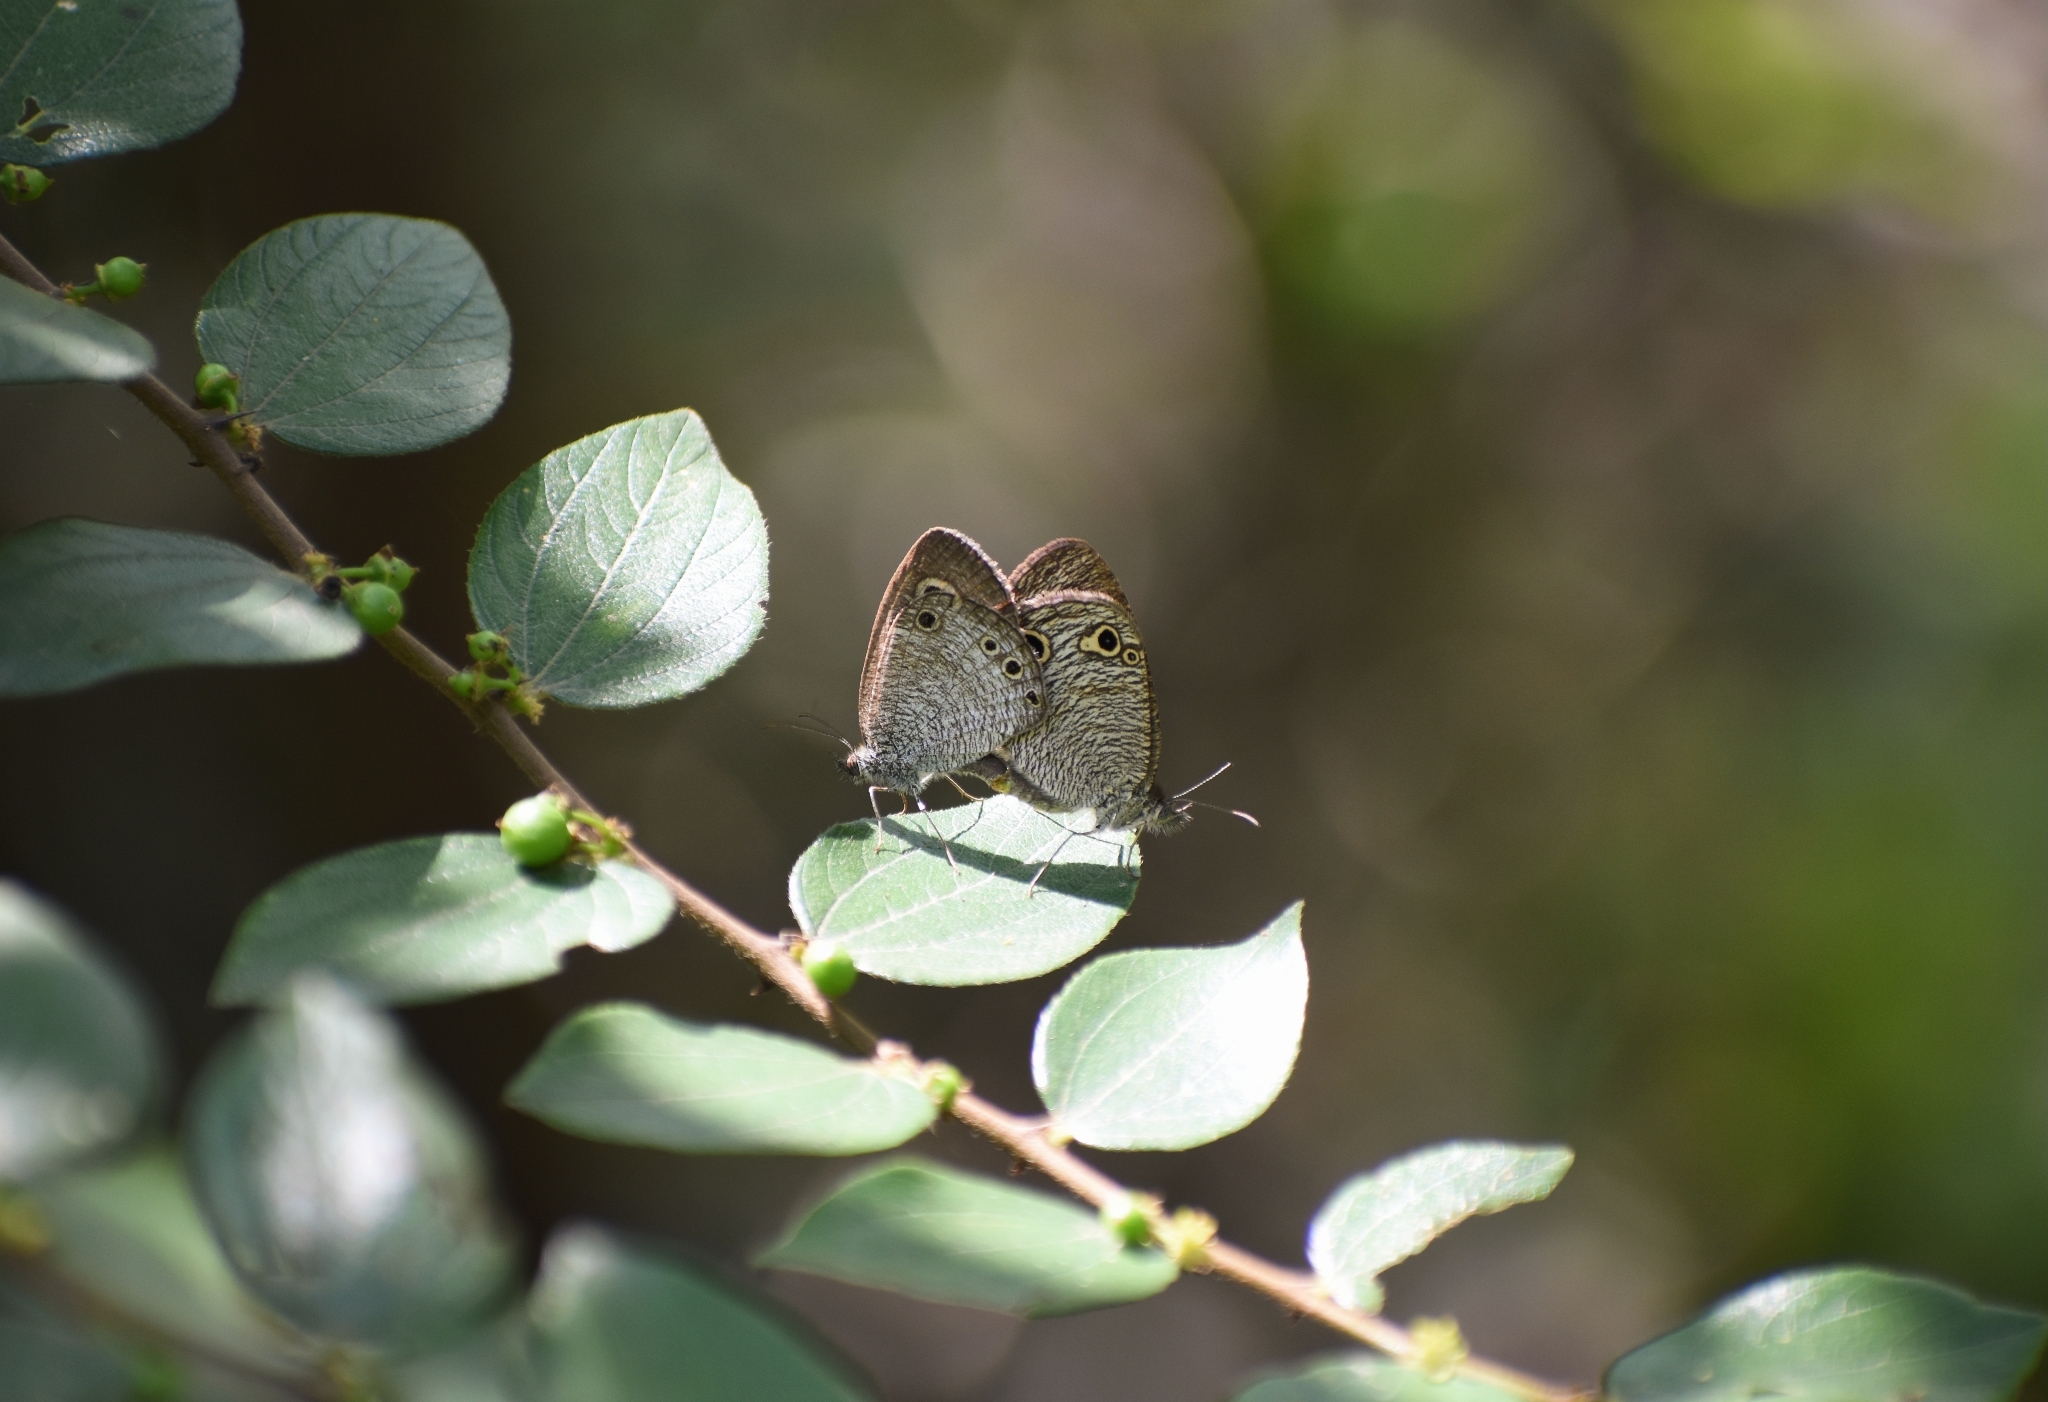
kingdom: Animalia
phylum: Arthropoda
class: Insecta
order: Lepidoptera
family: Nymphalidae
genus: Ypthima
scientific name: Ypthima huebneri
